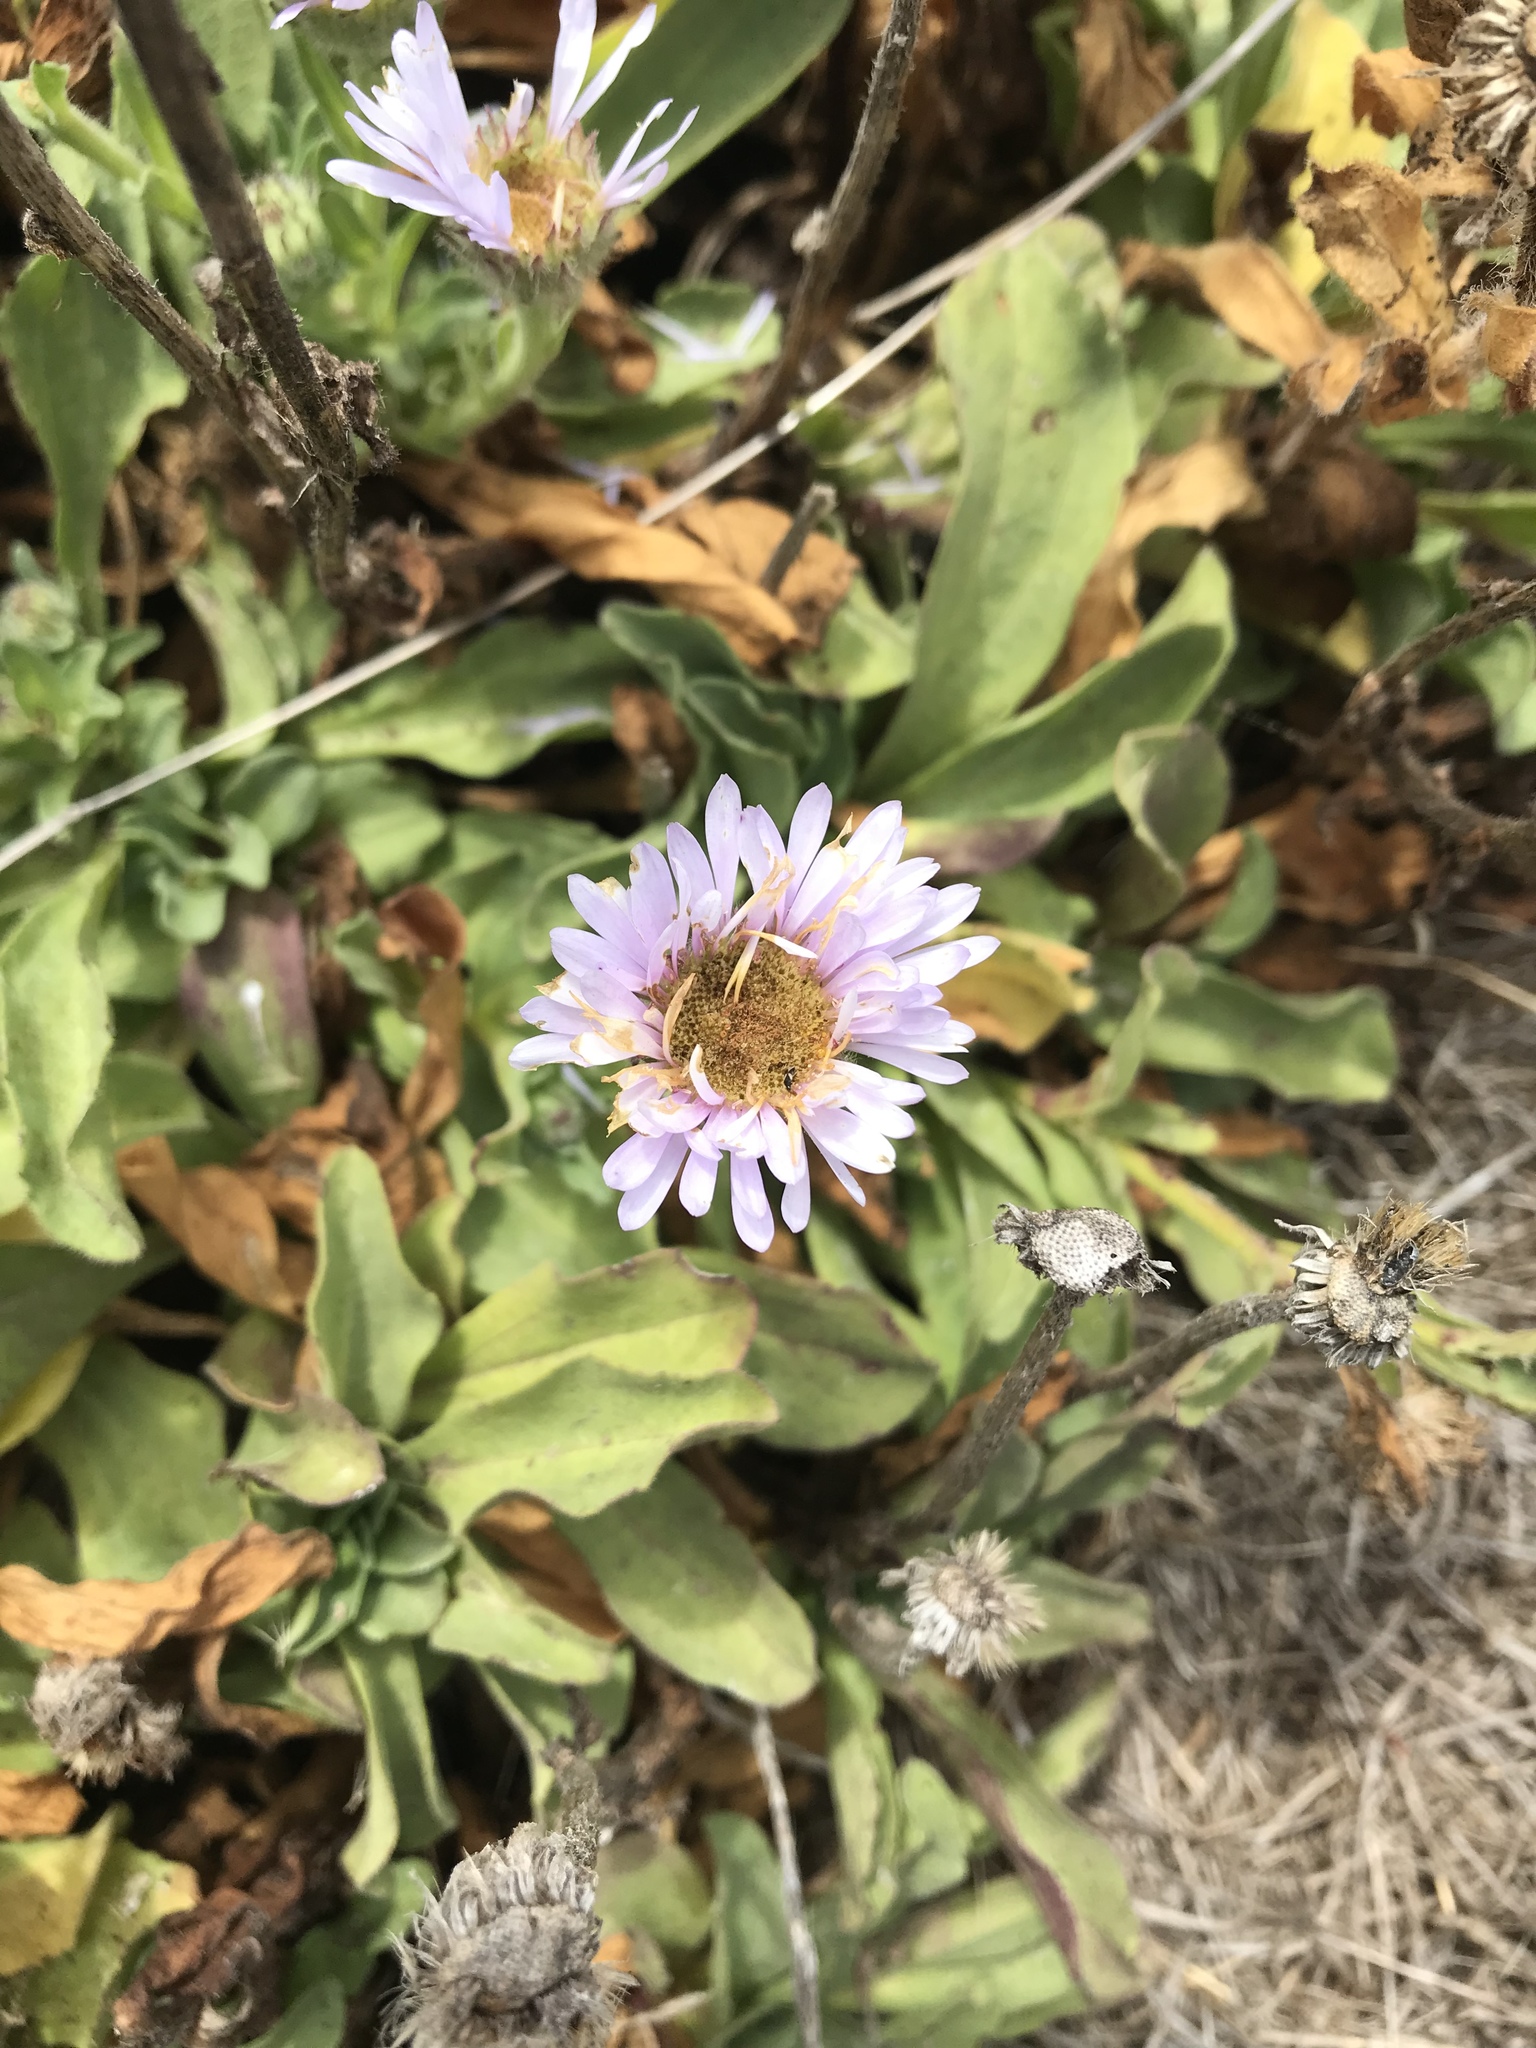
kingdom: Plantae
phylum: Tracheophyta
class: Magnoliopsida
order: Asterales
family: Asteraceae
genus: Erigeron
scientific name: Erigeron glaucus
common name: Seaside daisy
